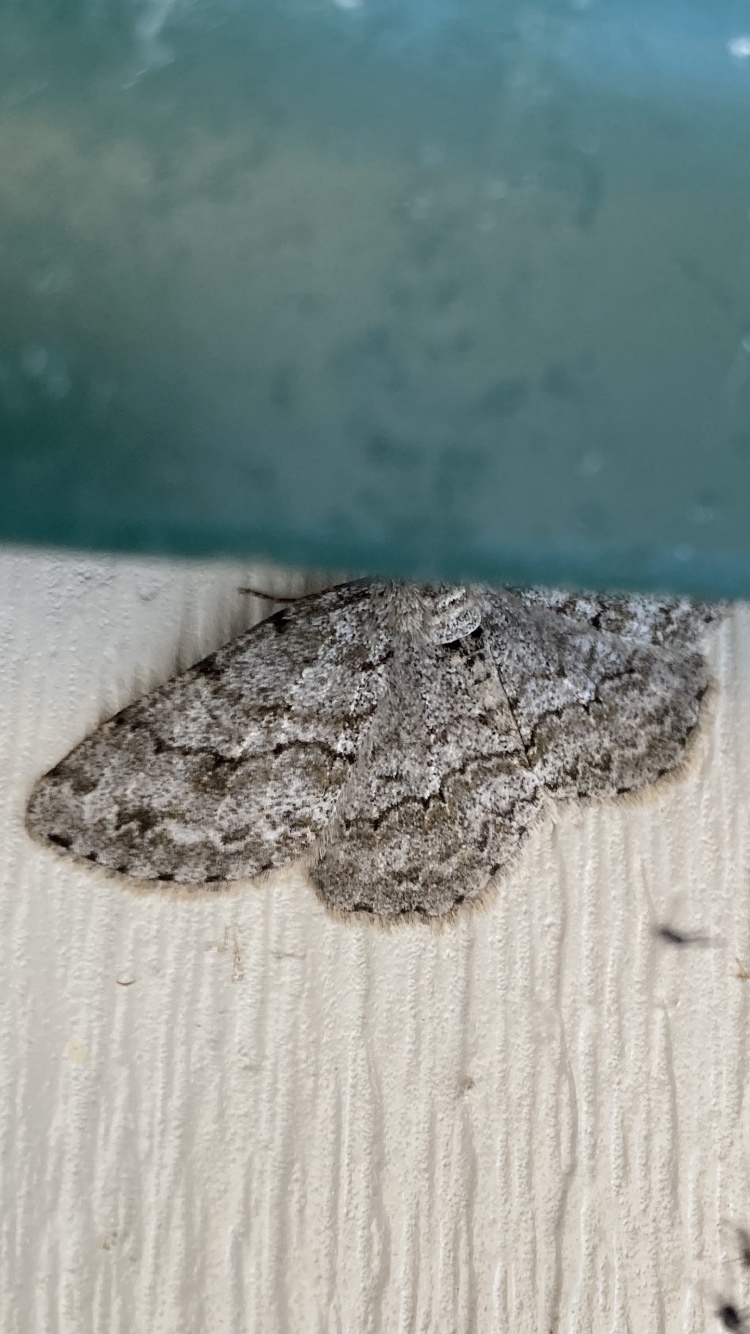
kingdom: Animalia
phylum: Arthropoda
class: Insecta
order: Lepidoptera
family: Geometridae
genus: Ectropis
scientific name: Ectropis crepuscularia
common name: Engrailed
